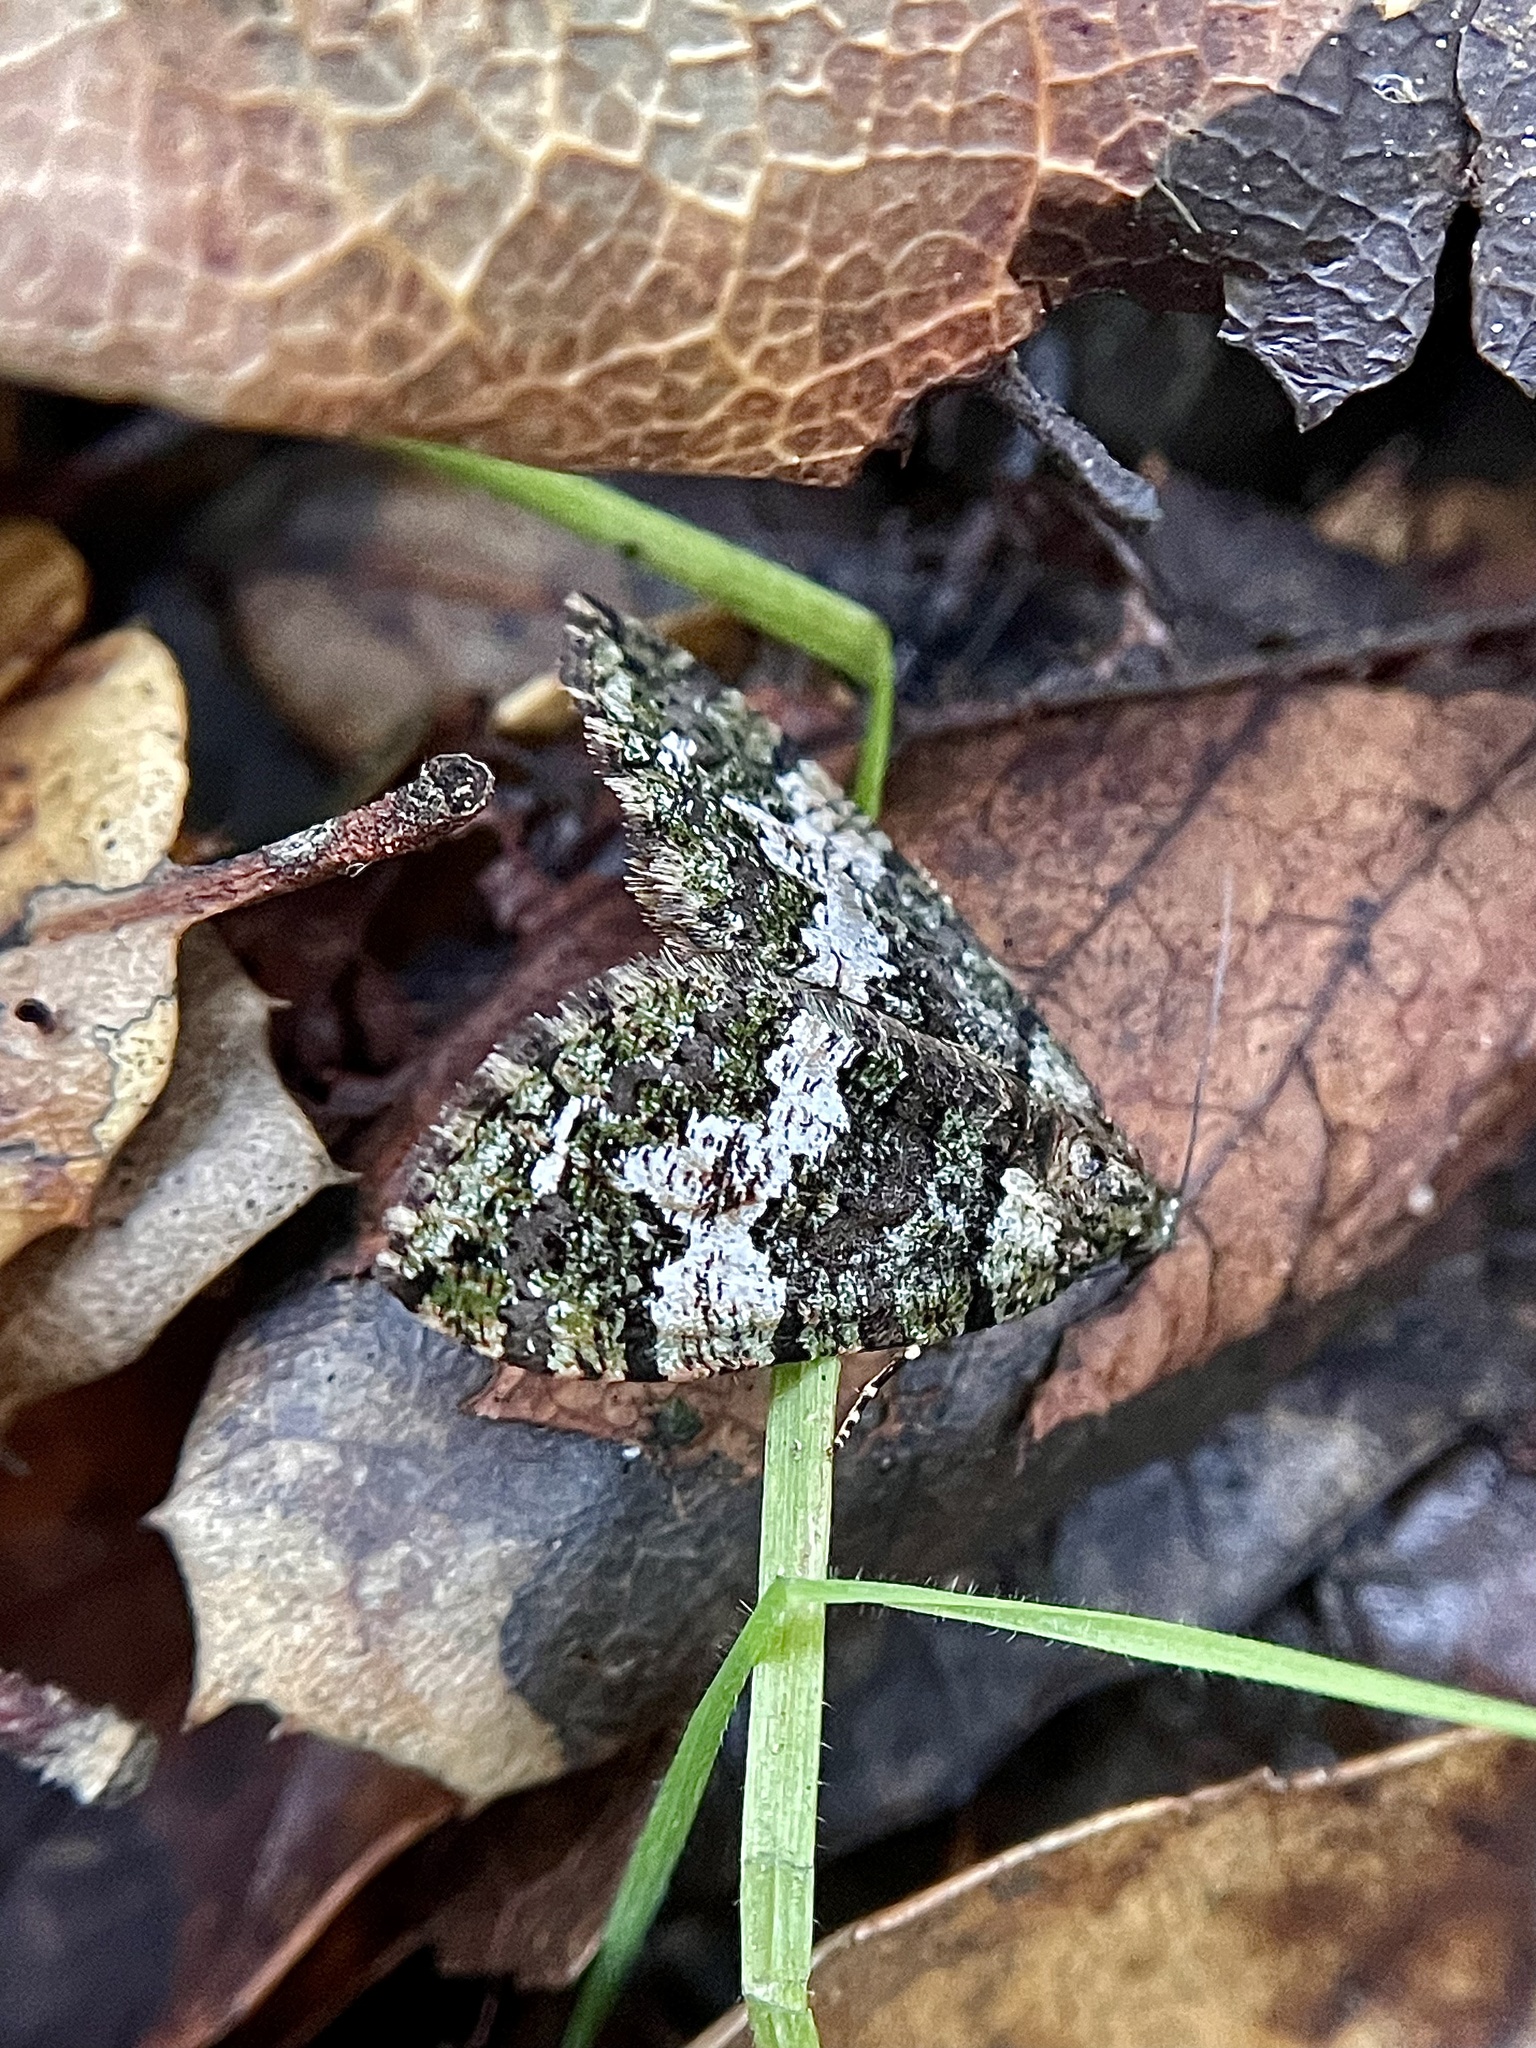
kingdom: Animalia
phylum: Arthropoda
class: Insecta
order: Lepidoptera
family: Geometridae
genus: Hydriomena
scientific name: Hydriomena albifasciata
